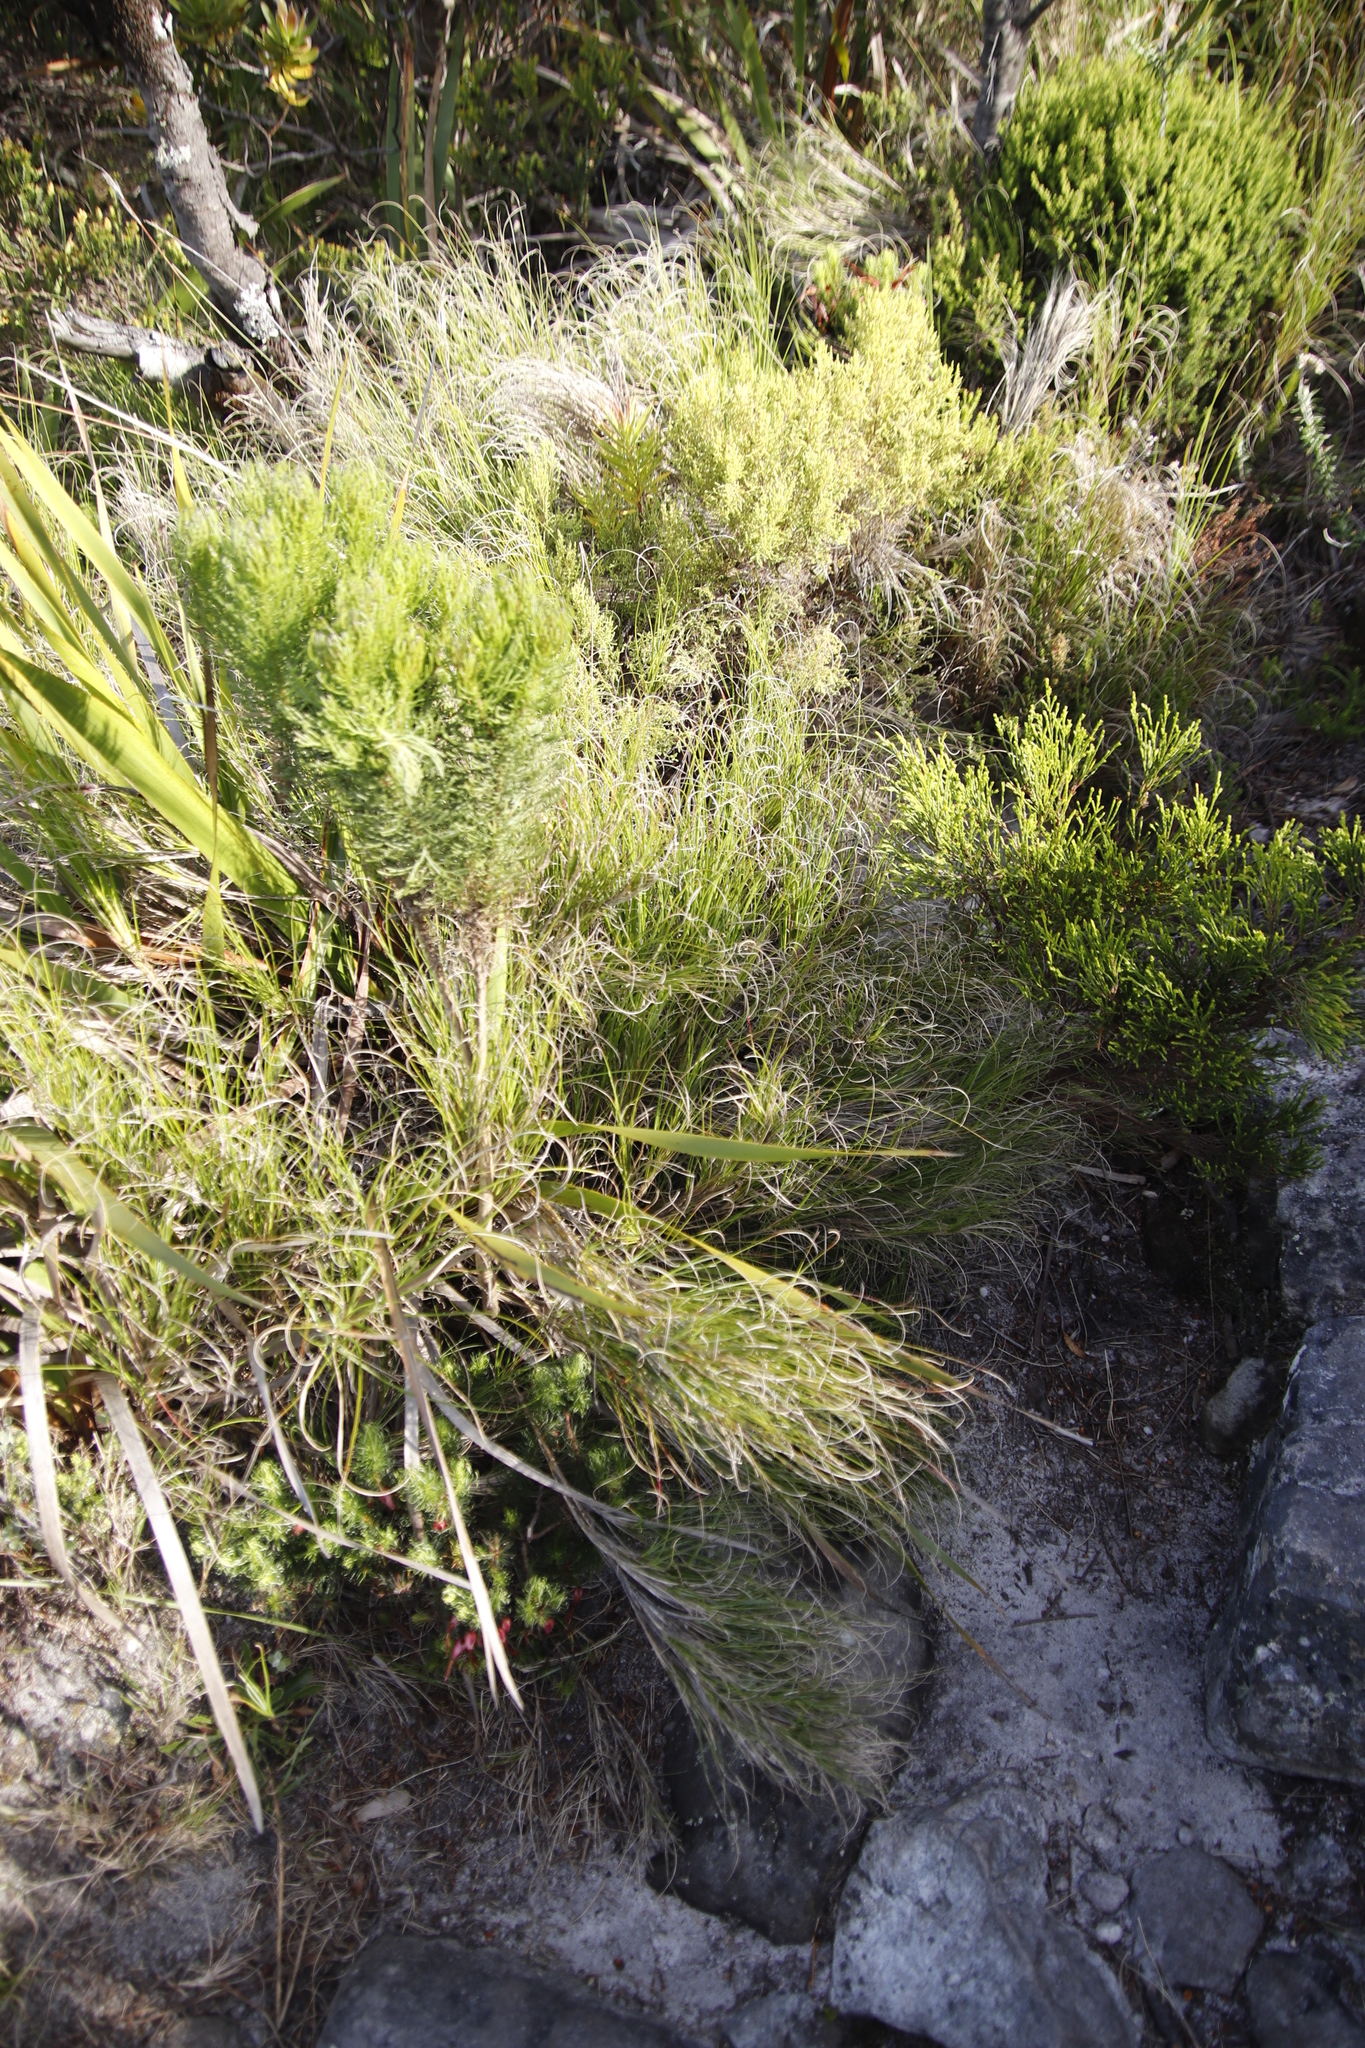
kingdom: Plantae
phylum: Tracheophyta
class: Liliopsida
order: Poales
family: Poaceae
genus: Pseudopentameris
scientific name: Pseudopentameris macrantha
